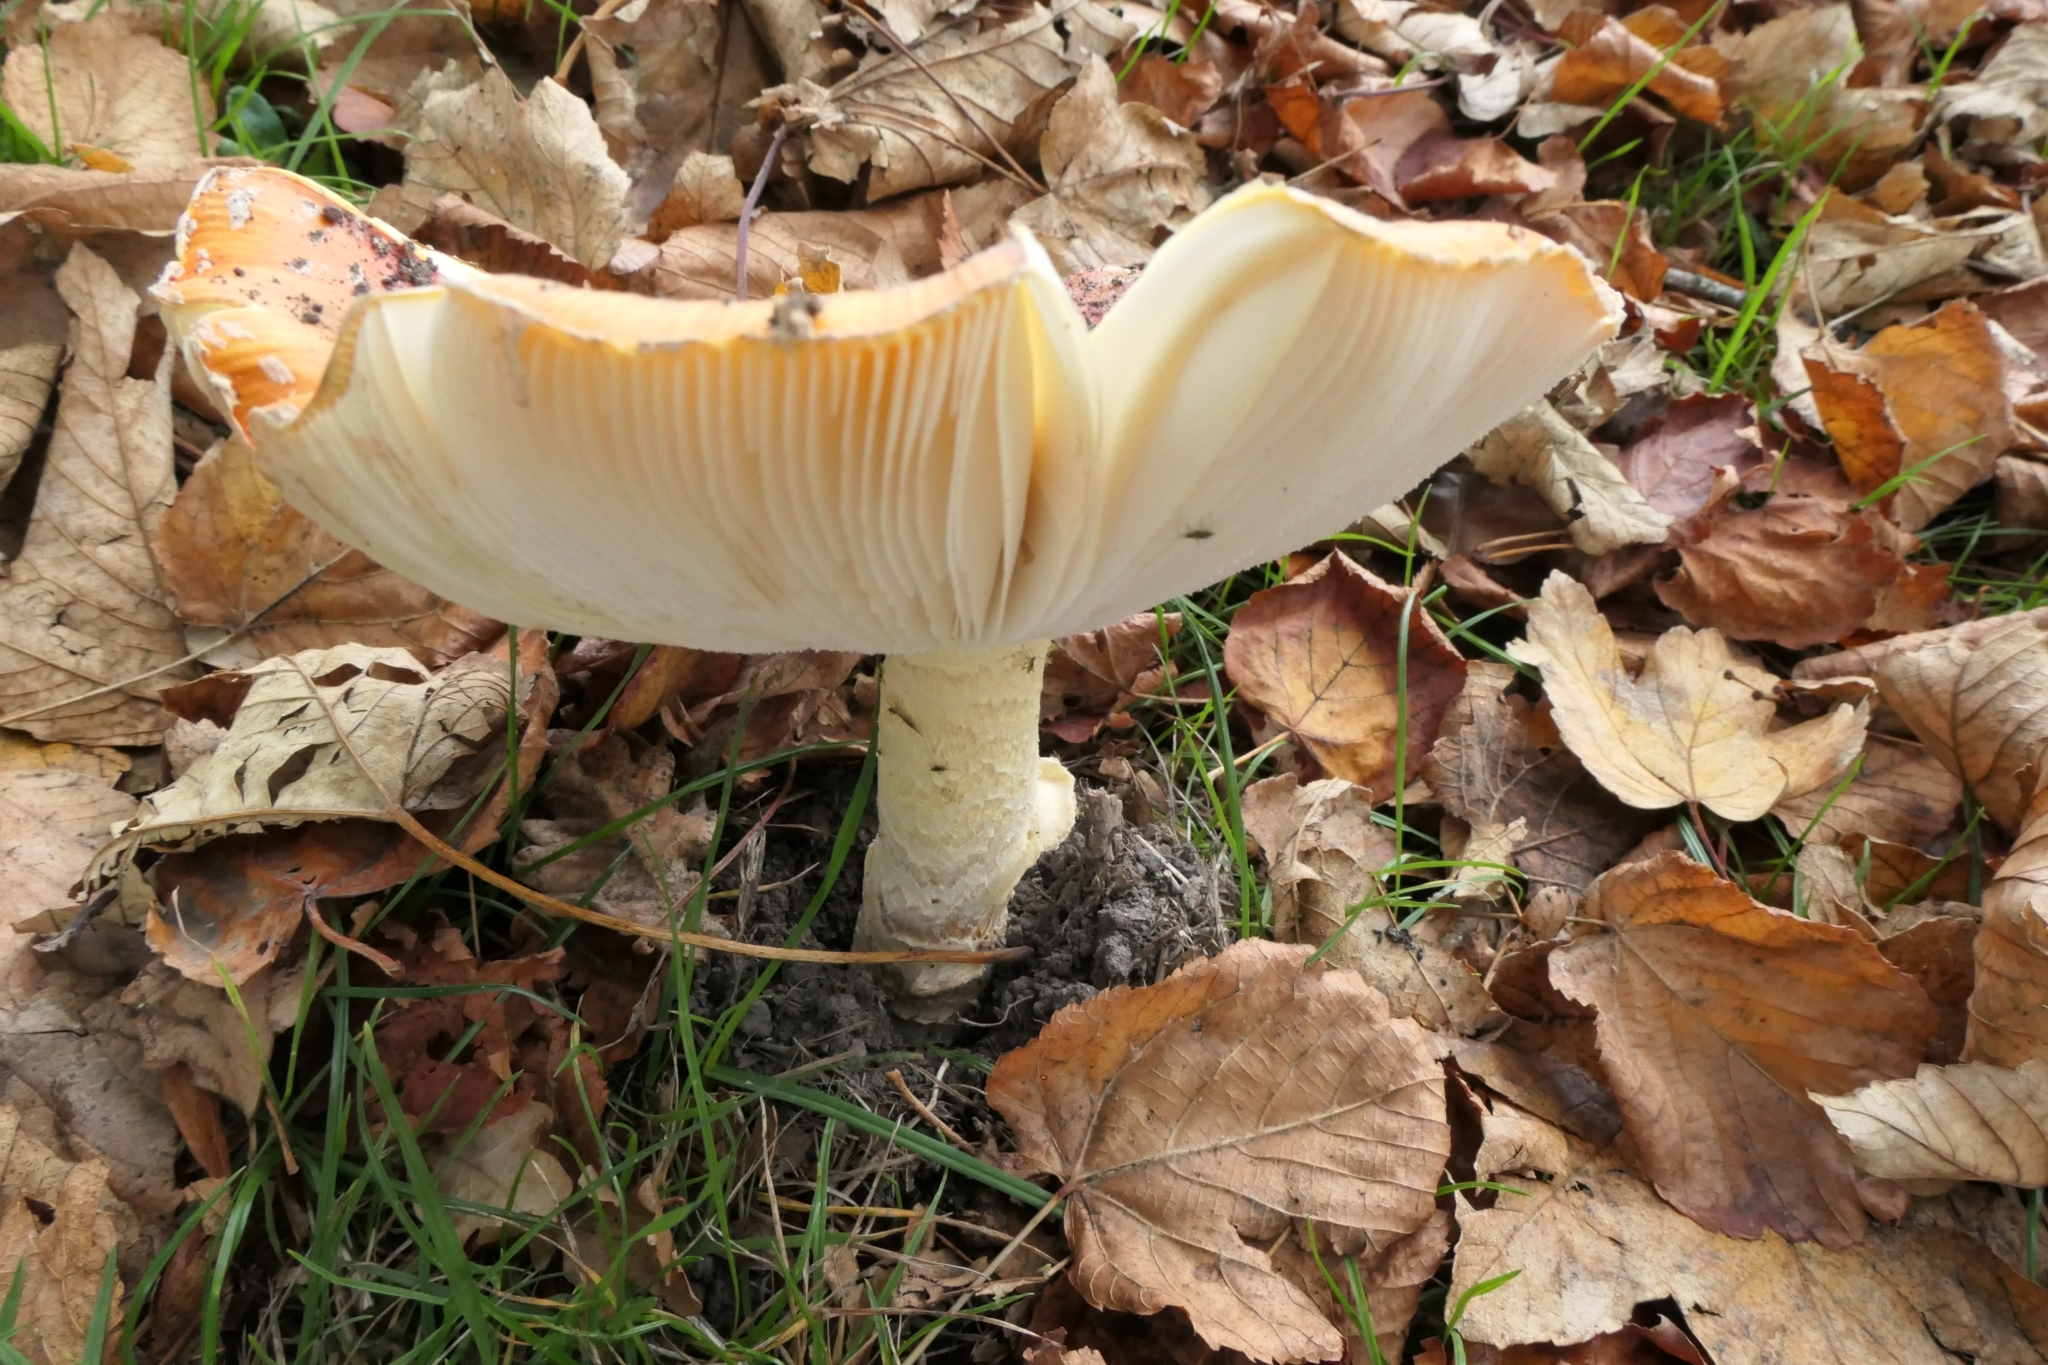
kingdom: Fungi
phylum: Basidiomycota
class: Agaricomycetes
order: Agaricales
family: Amanitaceae
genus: Amanita
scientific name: Amanita muscaria
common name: Fly agaric
